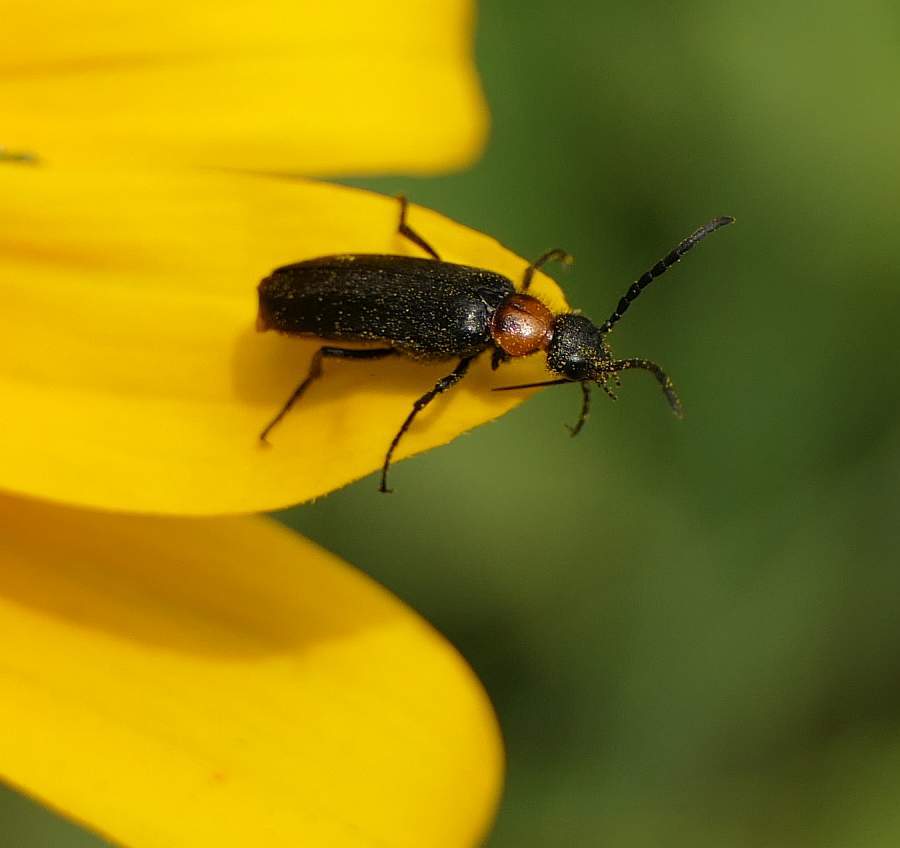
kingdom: Animalia
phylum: Arthropoda
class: Insecta
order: Coleoptera
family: Meloidae
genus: Nemognatha
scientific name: Nemognatha nemorensis
